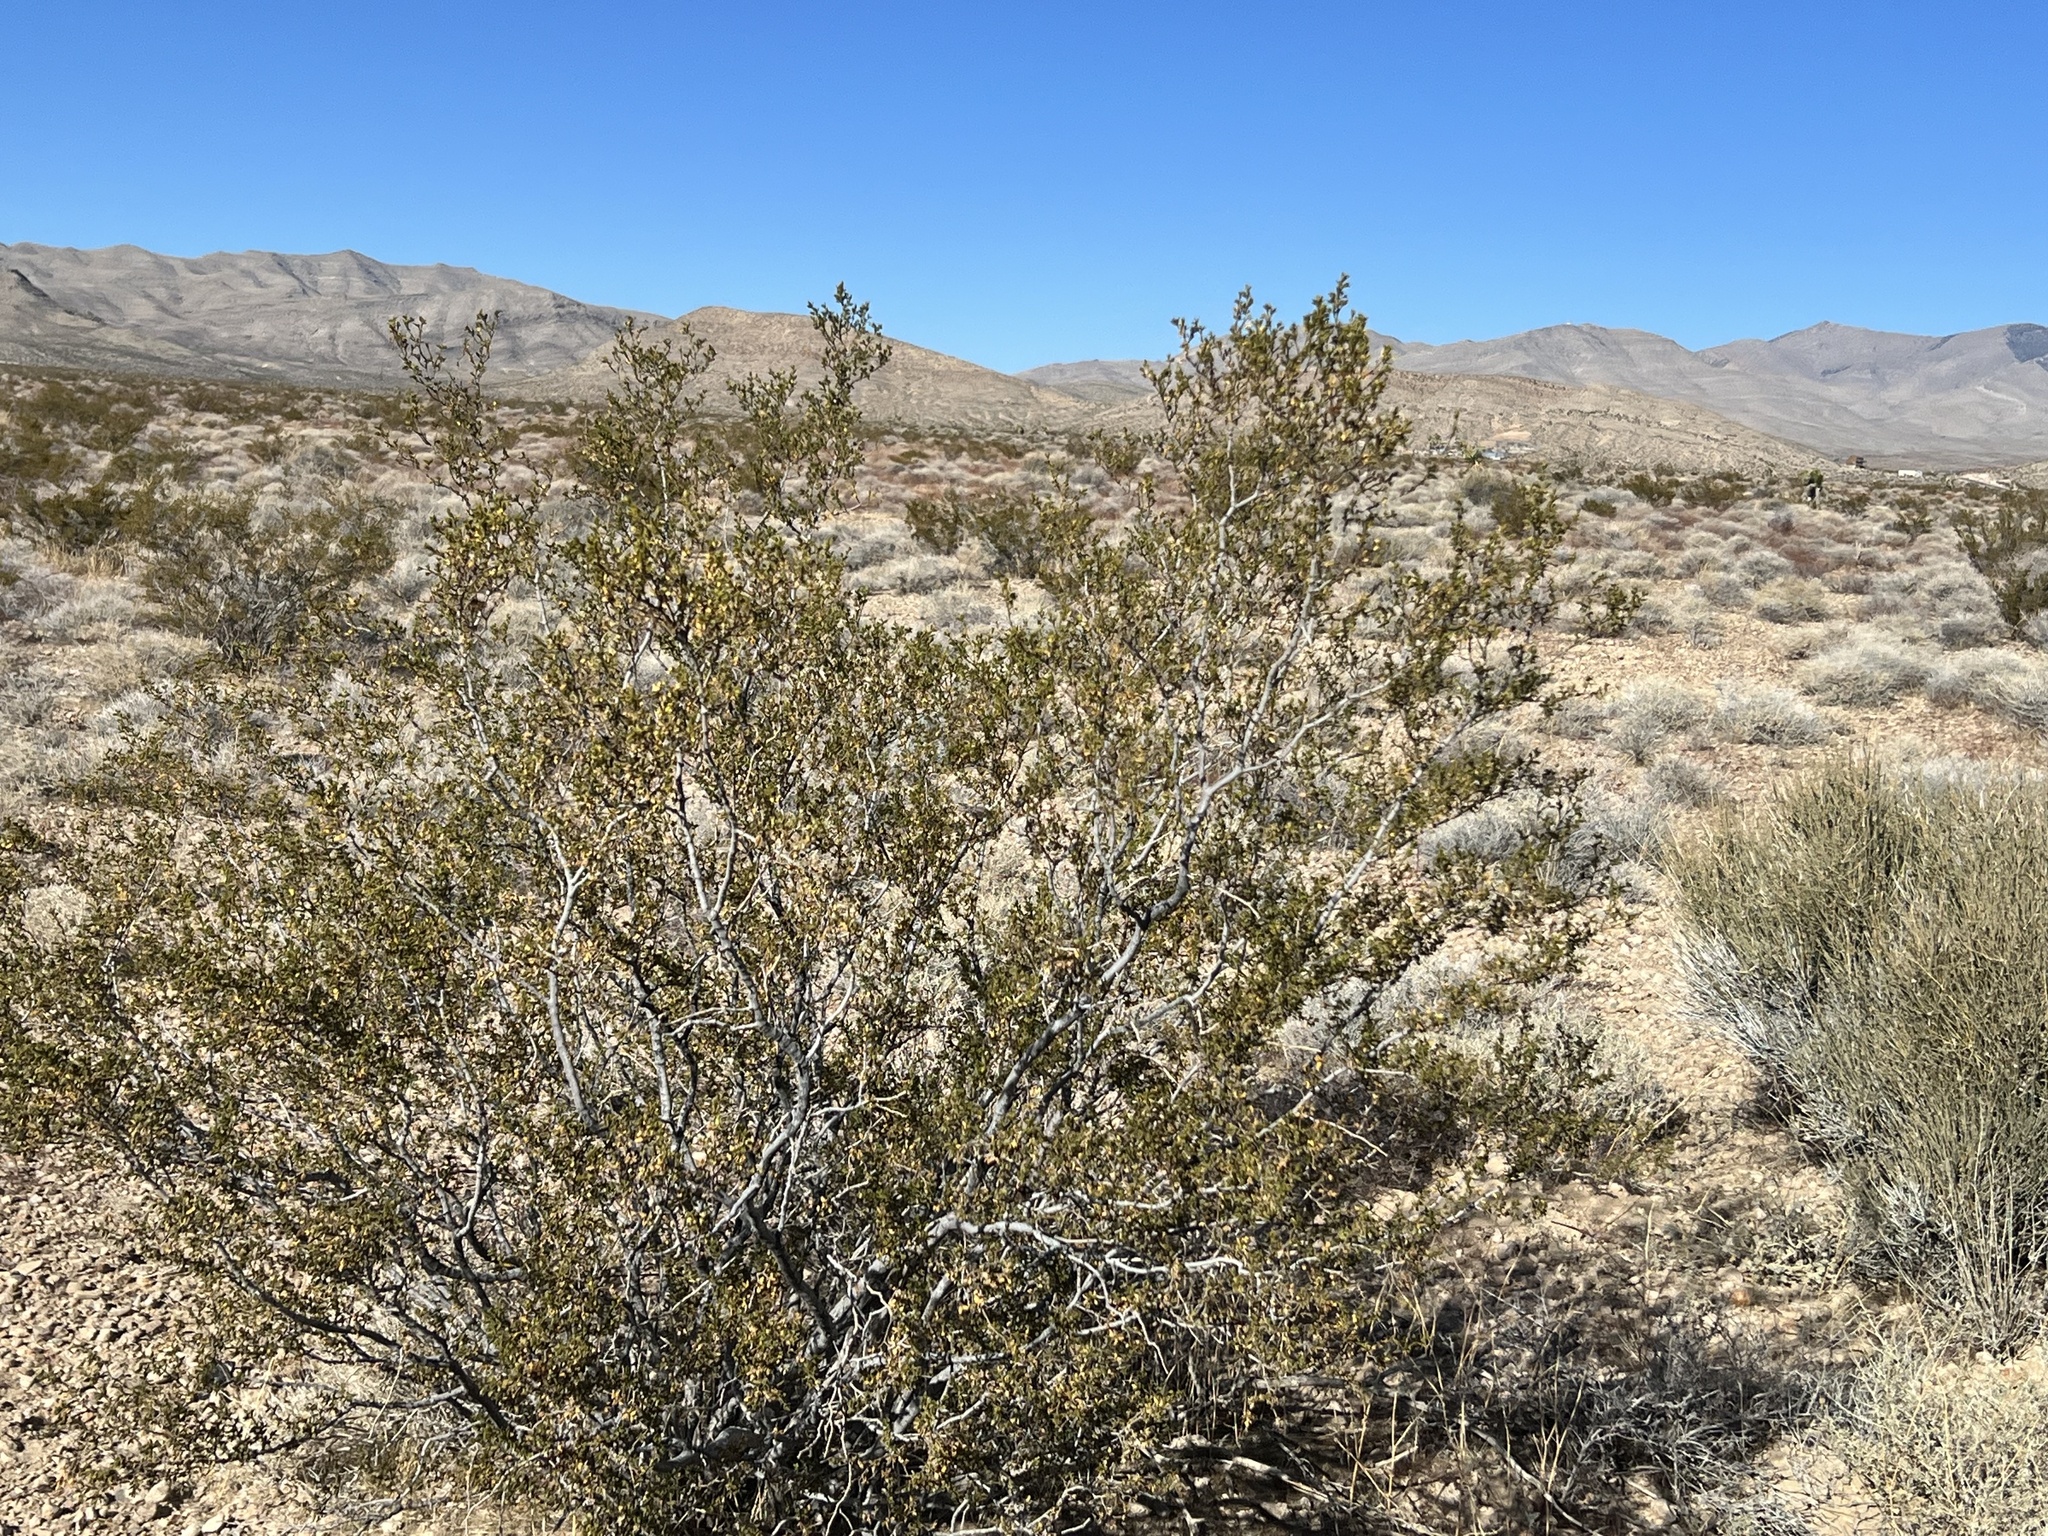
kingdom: Plantae
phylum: Tracheophyta
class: Magnoliopsida
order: Zygophyllales
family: Zygophyllaceae
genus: Larrea
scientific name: Larrea tridentata
